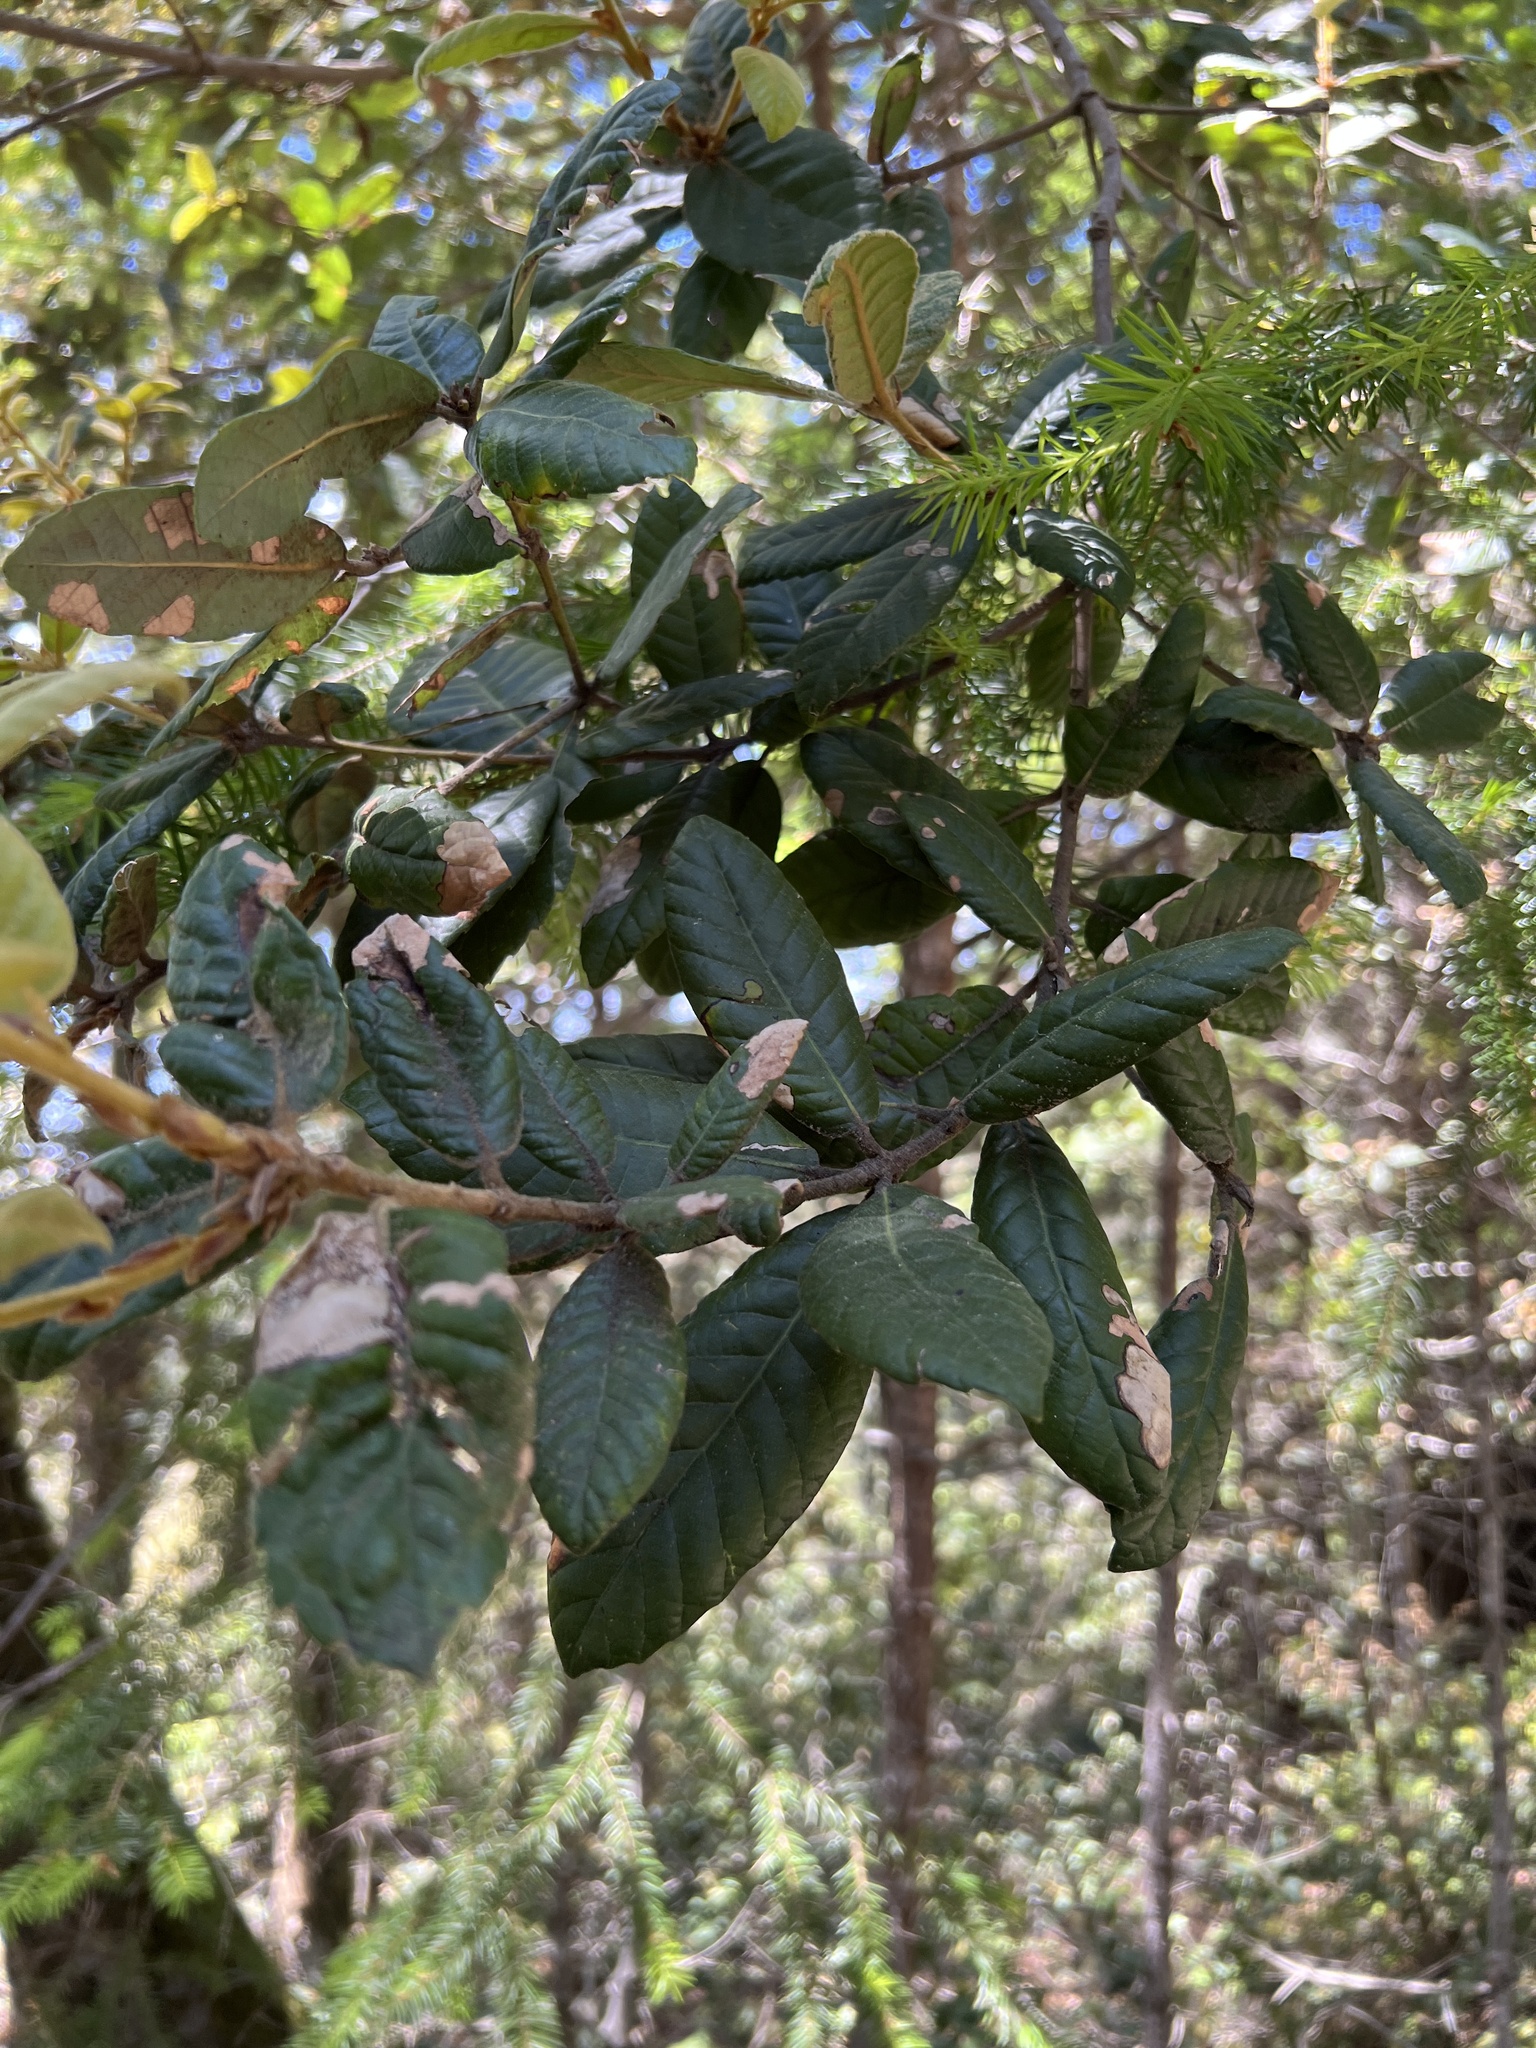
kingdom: Plantae
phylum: Tracheophyta
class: Magnoliopsida
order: Fagales
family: Fagaceae
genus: Notholithocarpus
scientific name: Notholithocarpus densiflorus
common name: Tan bark oak
